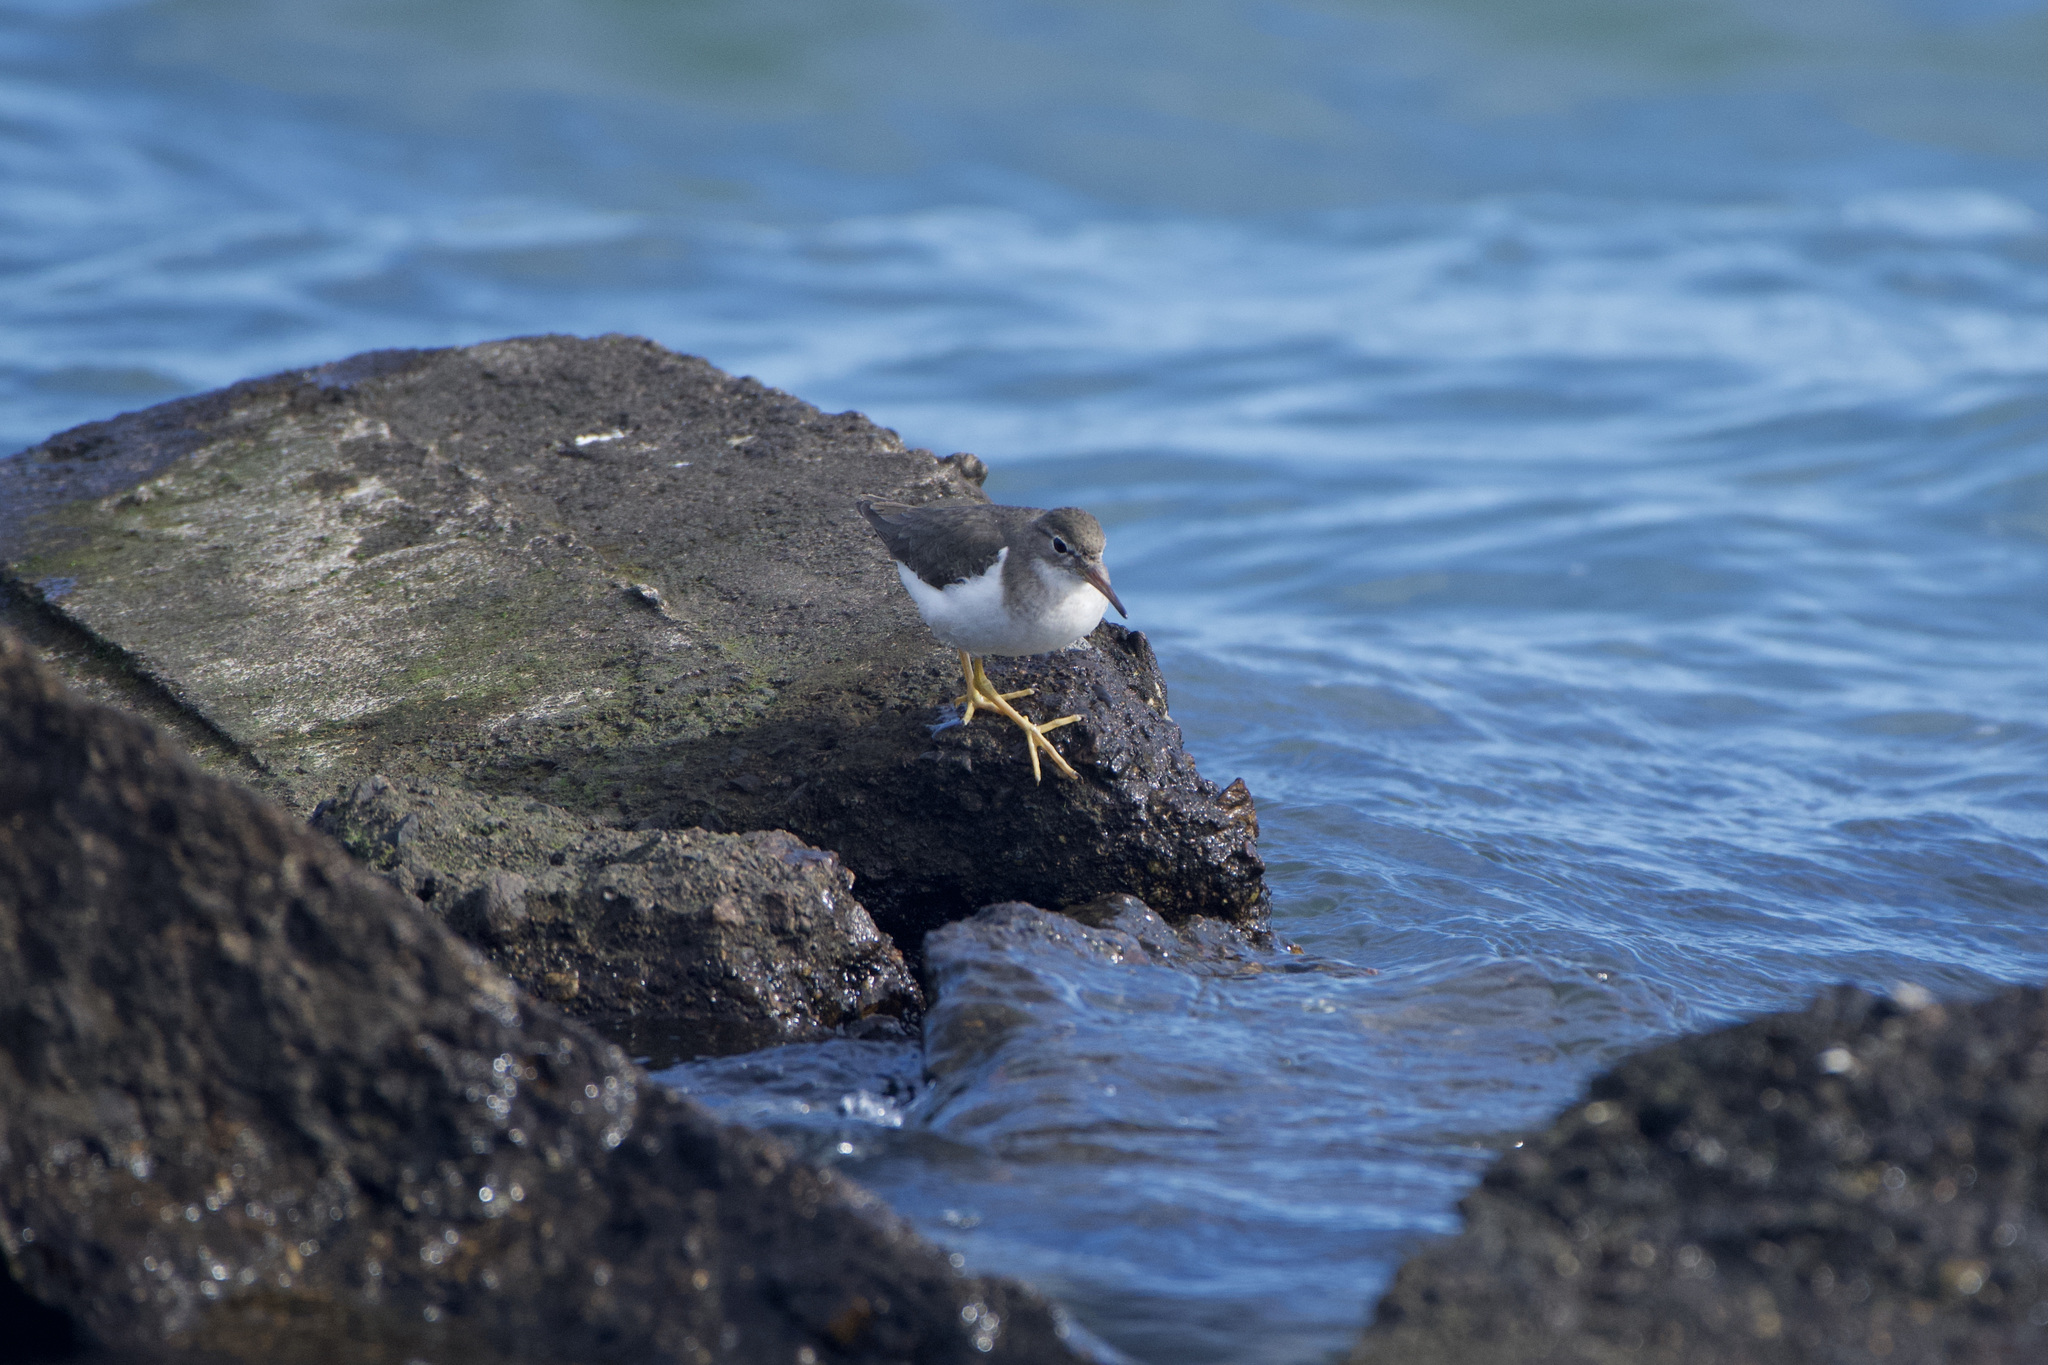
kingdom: Animalia
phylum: Chordata
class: Aves
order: Charadriiformes
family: Scolopacidae
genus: Actitis
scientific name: Actitis macularius
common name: Spotted sandpiper
